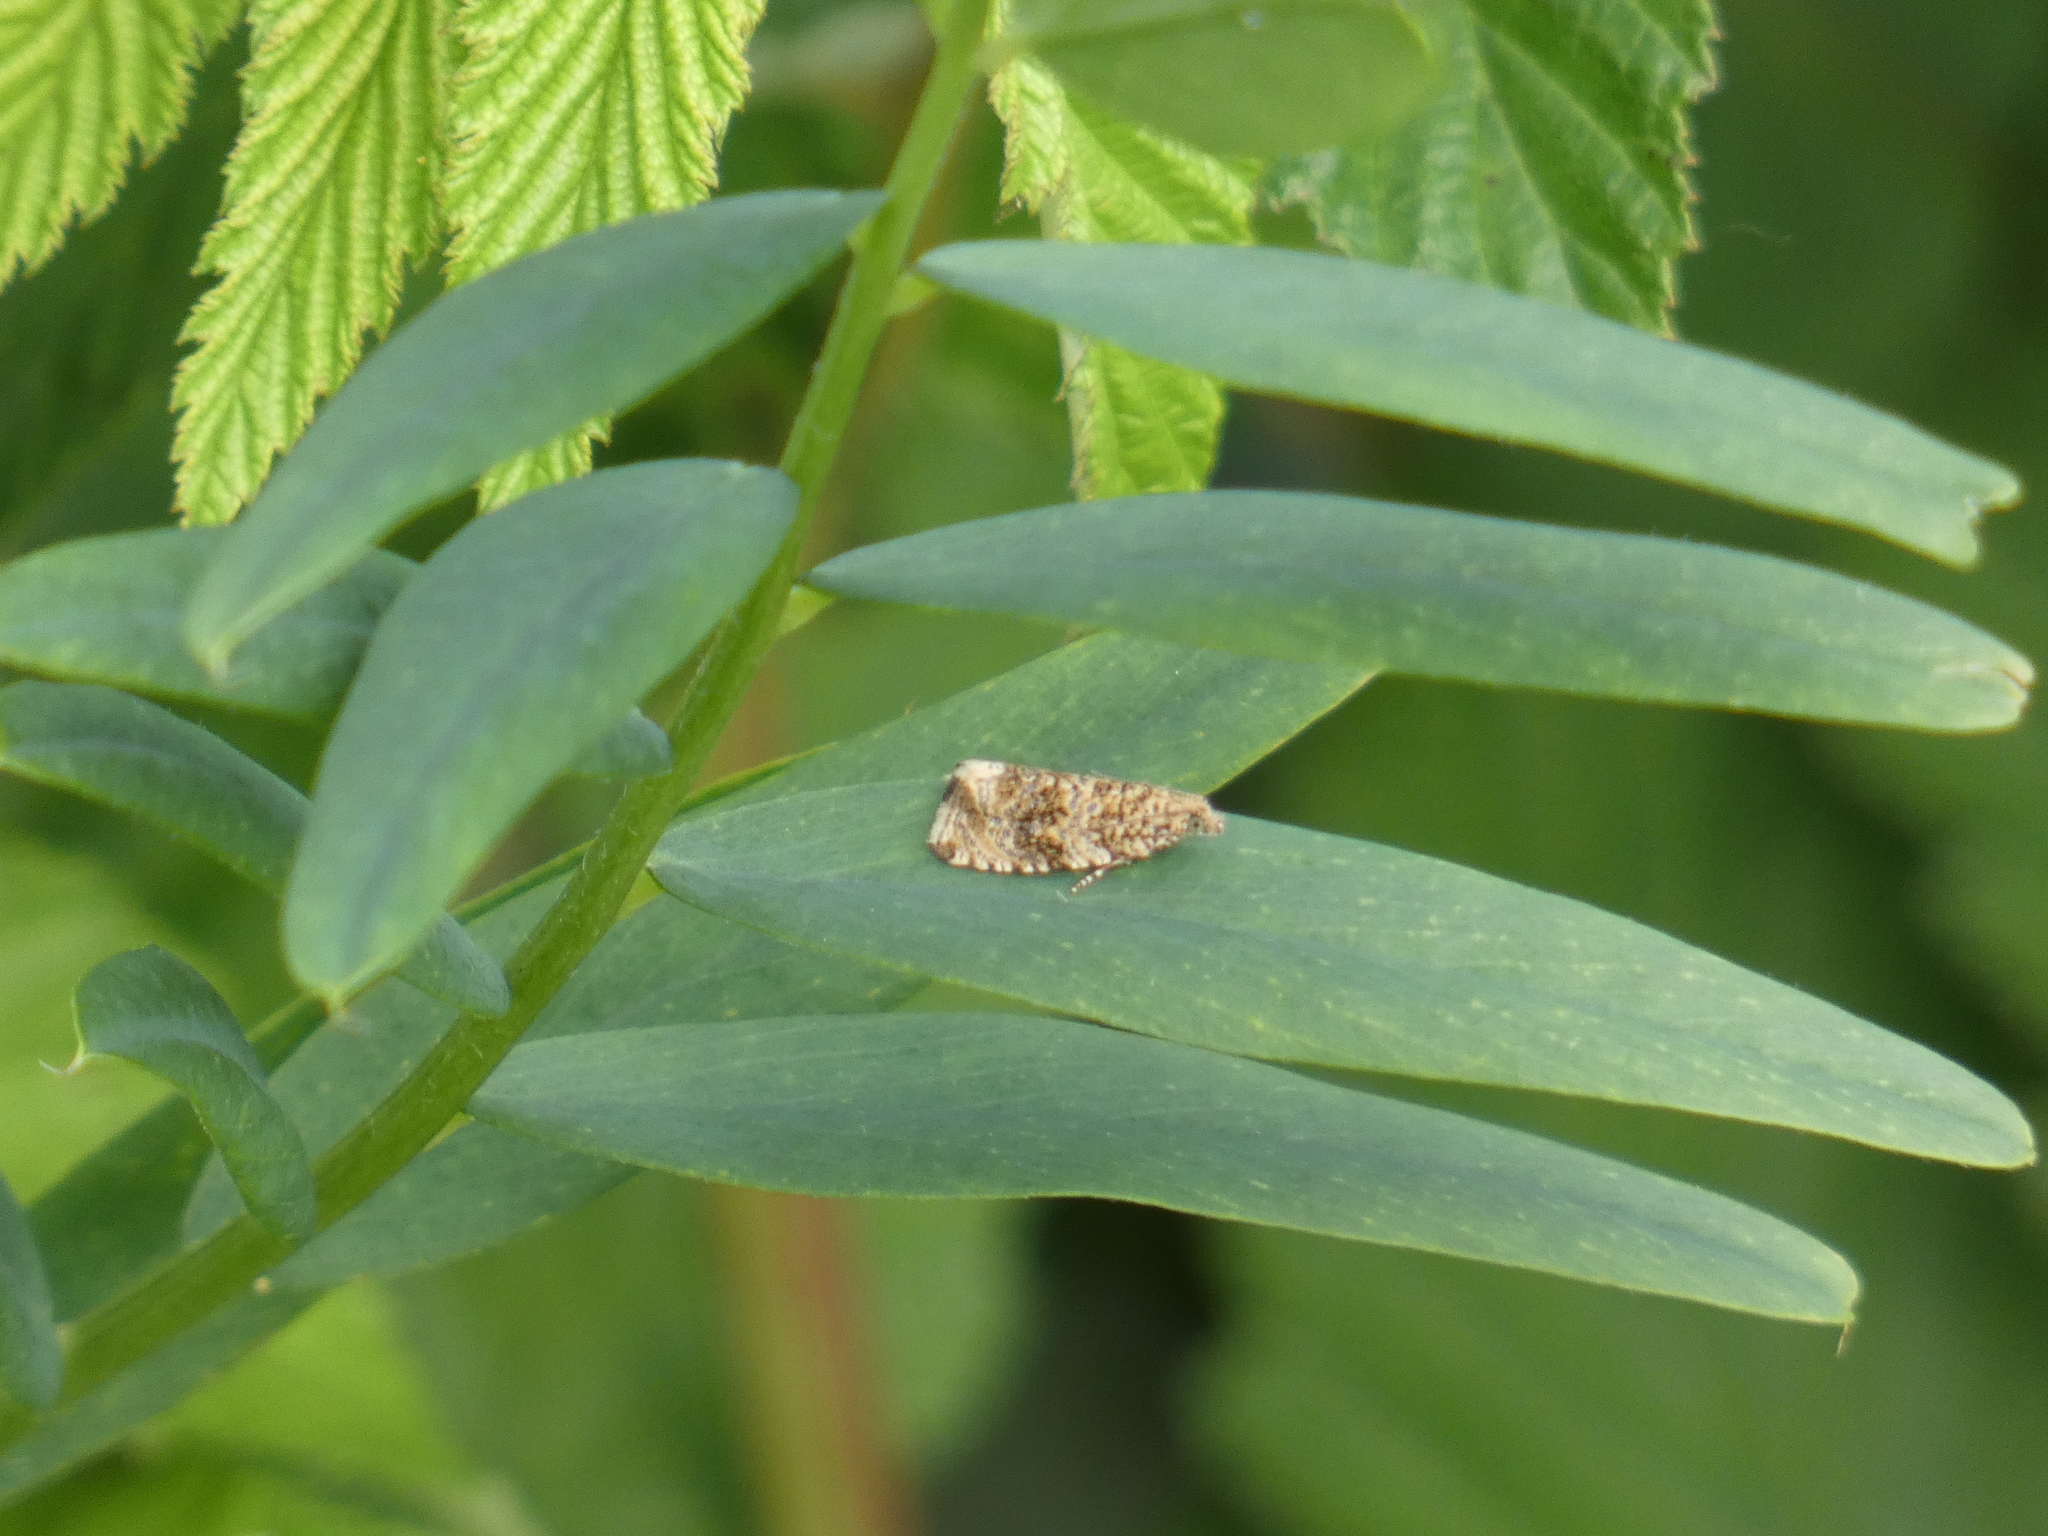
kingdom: Animalia
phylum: Arthropoda
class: Insecta
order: Lepidoptera
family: Tortricidae
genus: Syricoris
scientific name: Syricoris lacunana
